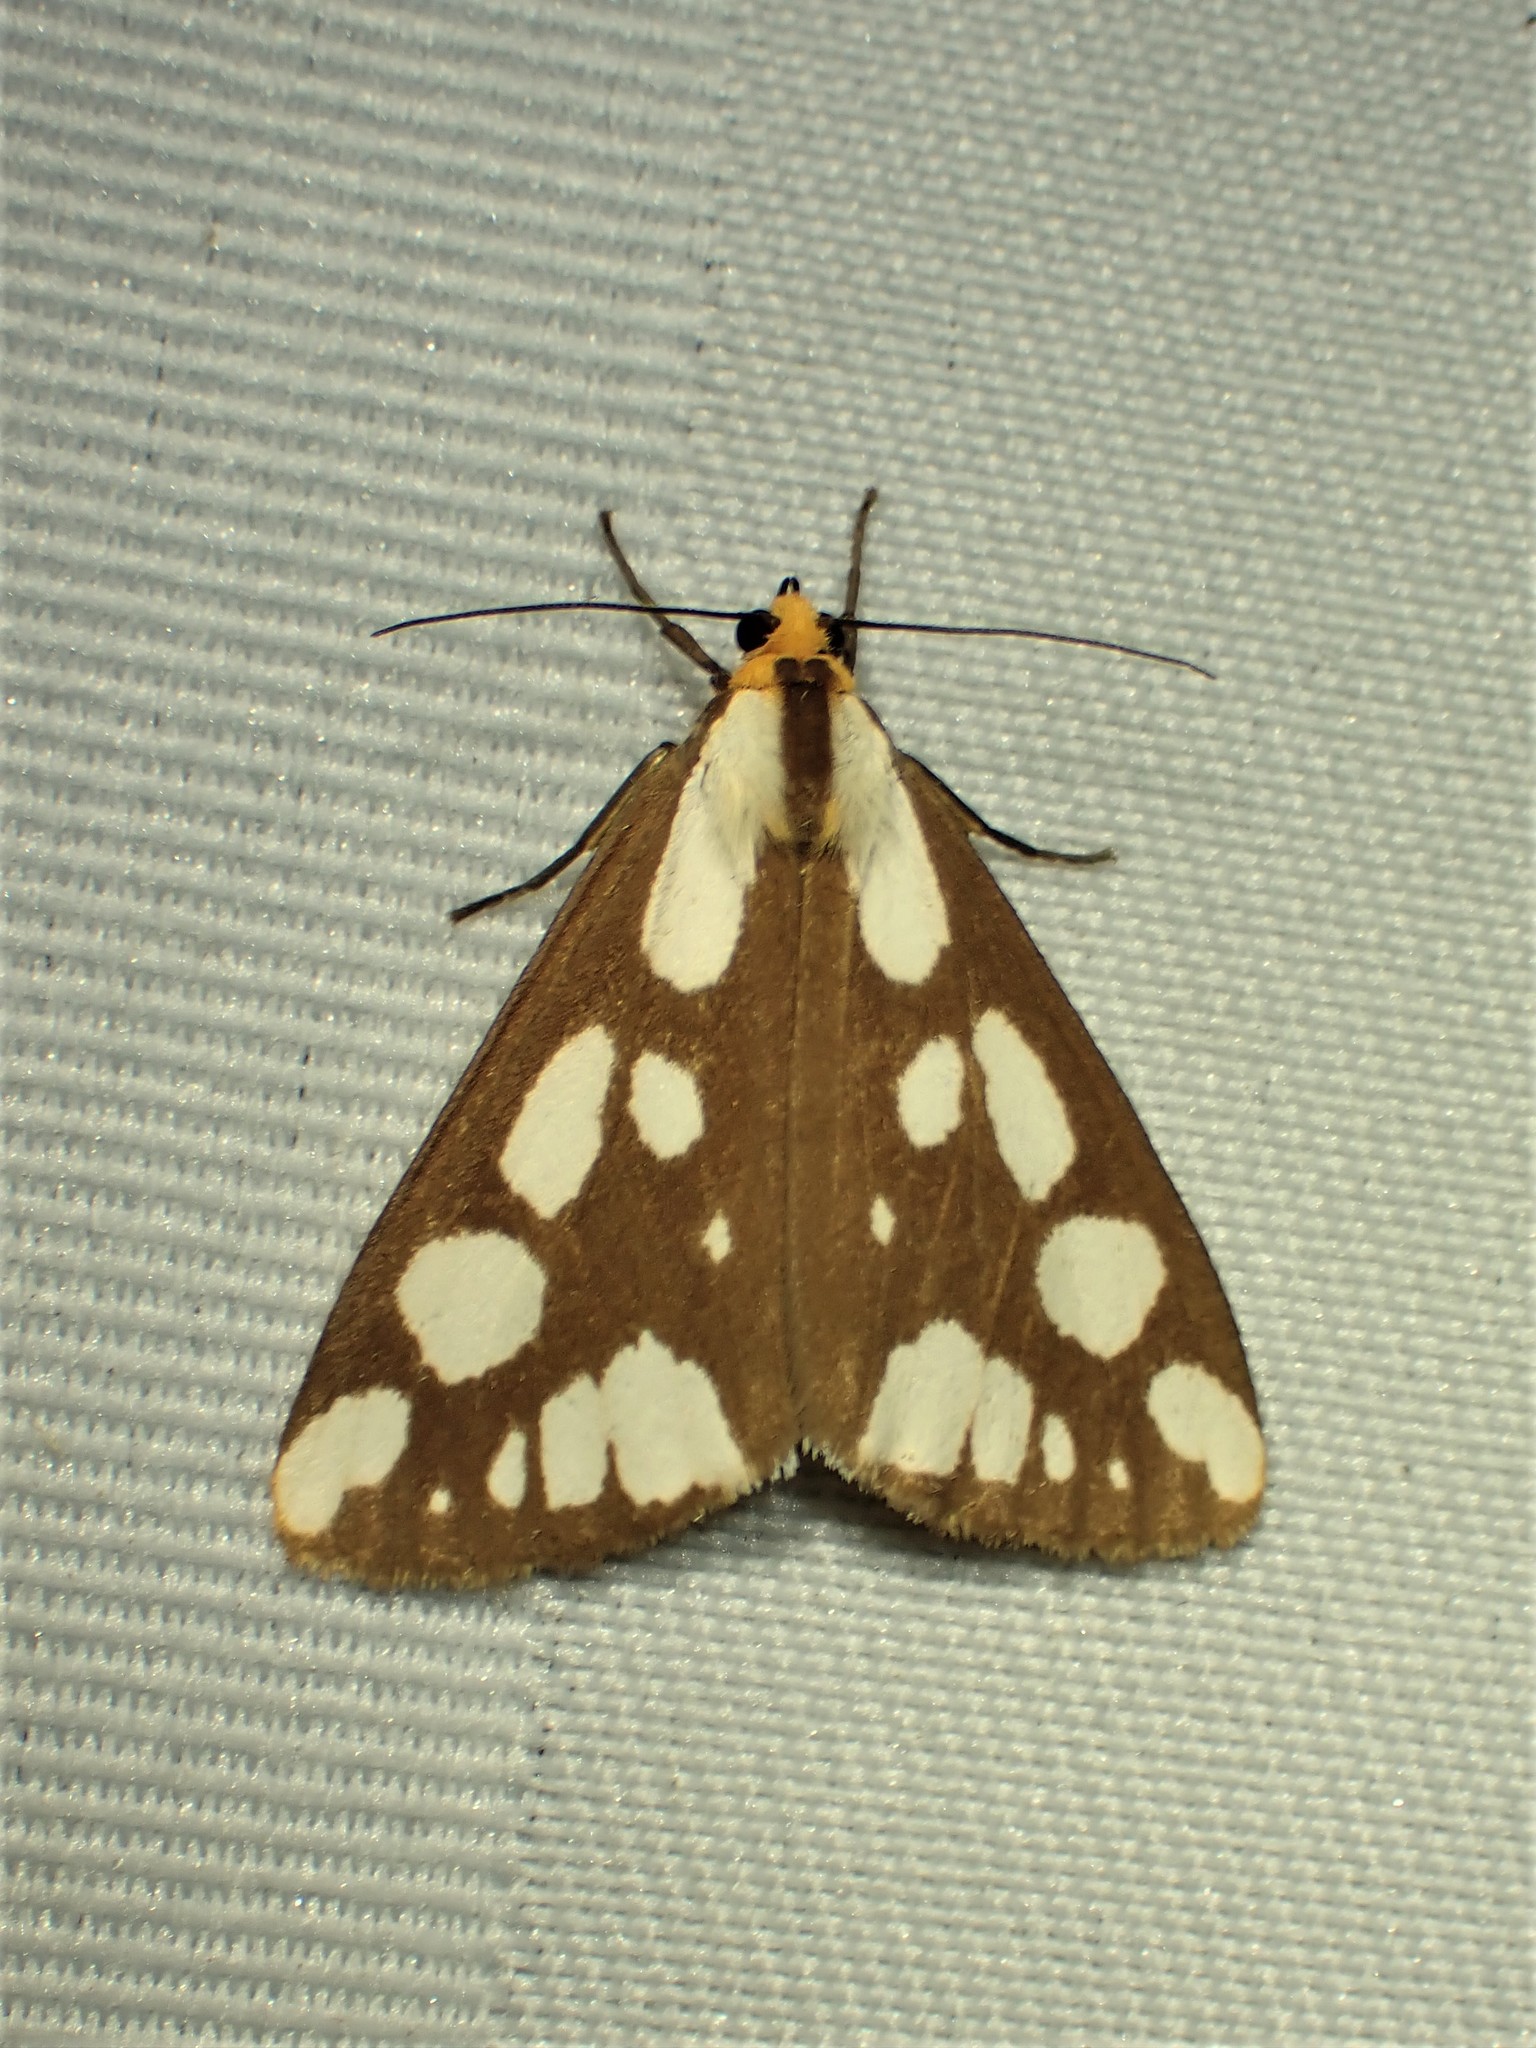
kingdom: Animalia
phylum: Arthropoda
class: Insecta
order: Lepidoptera
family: Erebidae
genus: Haploa
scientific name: Haploa confusa
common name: Confused haploa moth
